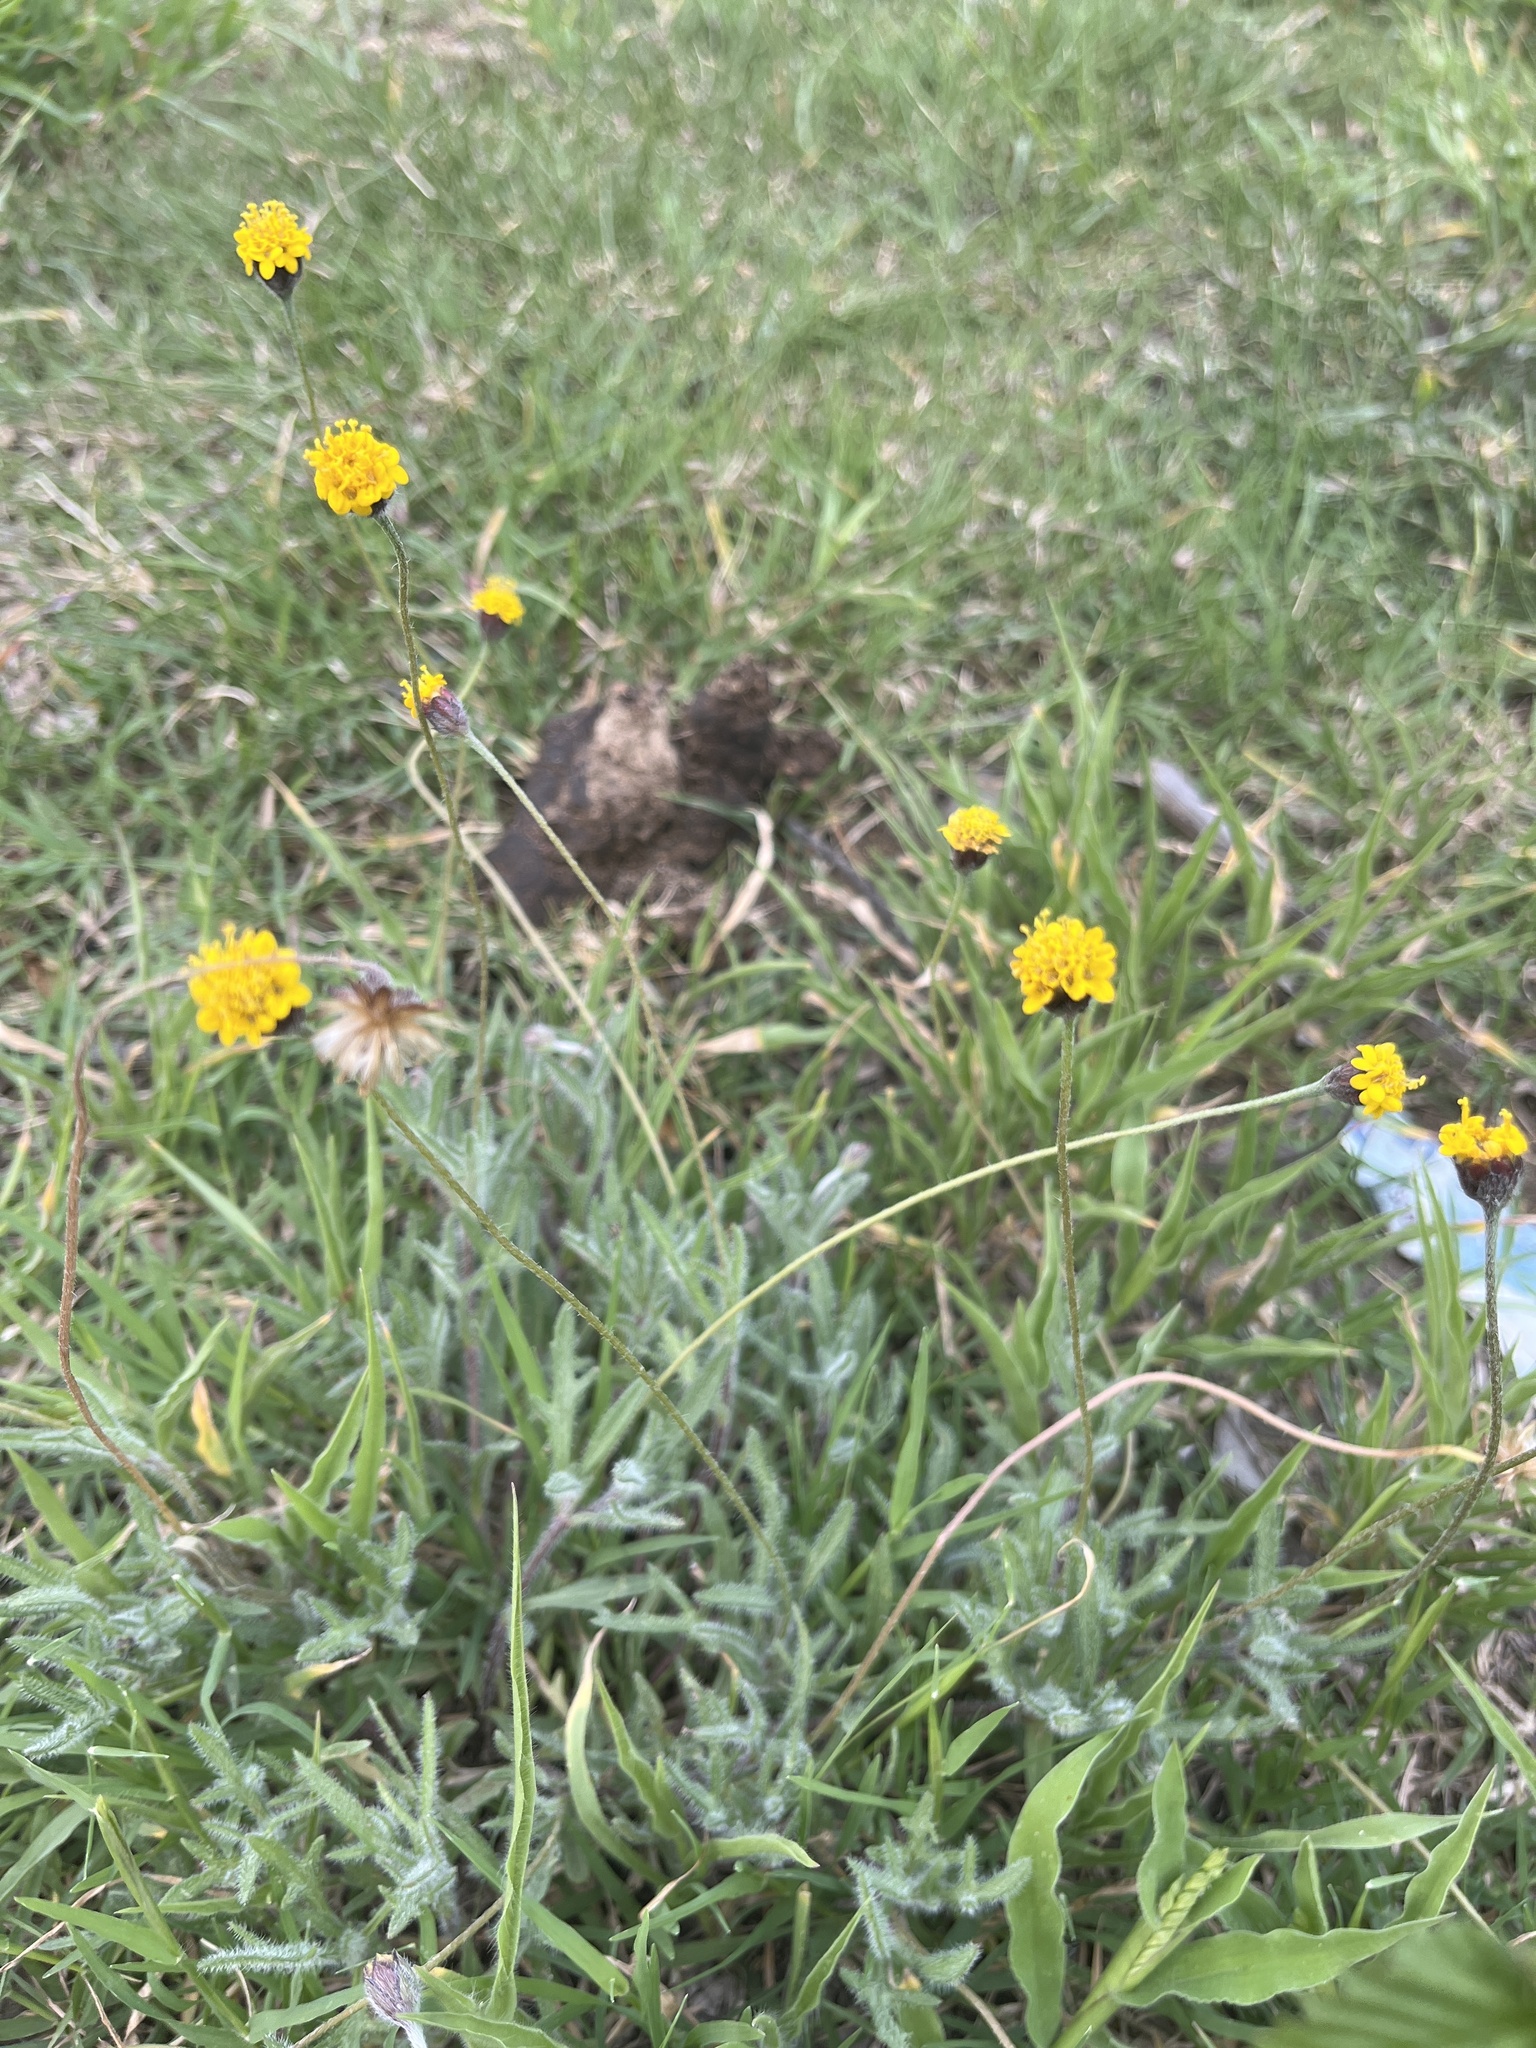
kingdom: Plantae
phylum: Tracheophyta
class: Magnoliopsida
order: Asterales
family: Asteraceae
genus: Tridax
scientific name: Tridax coronopifolia
